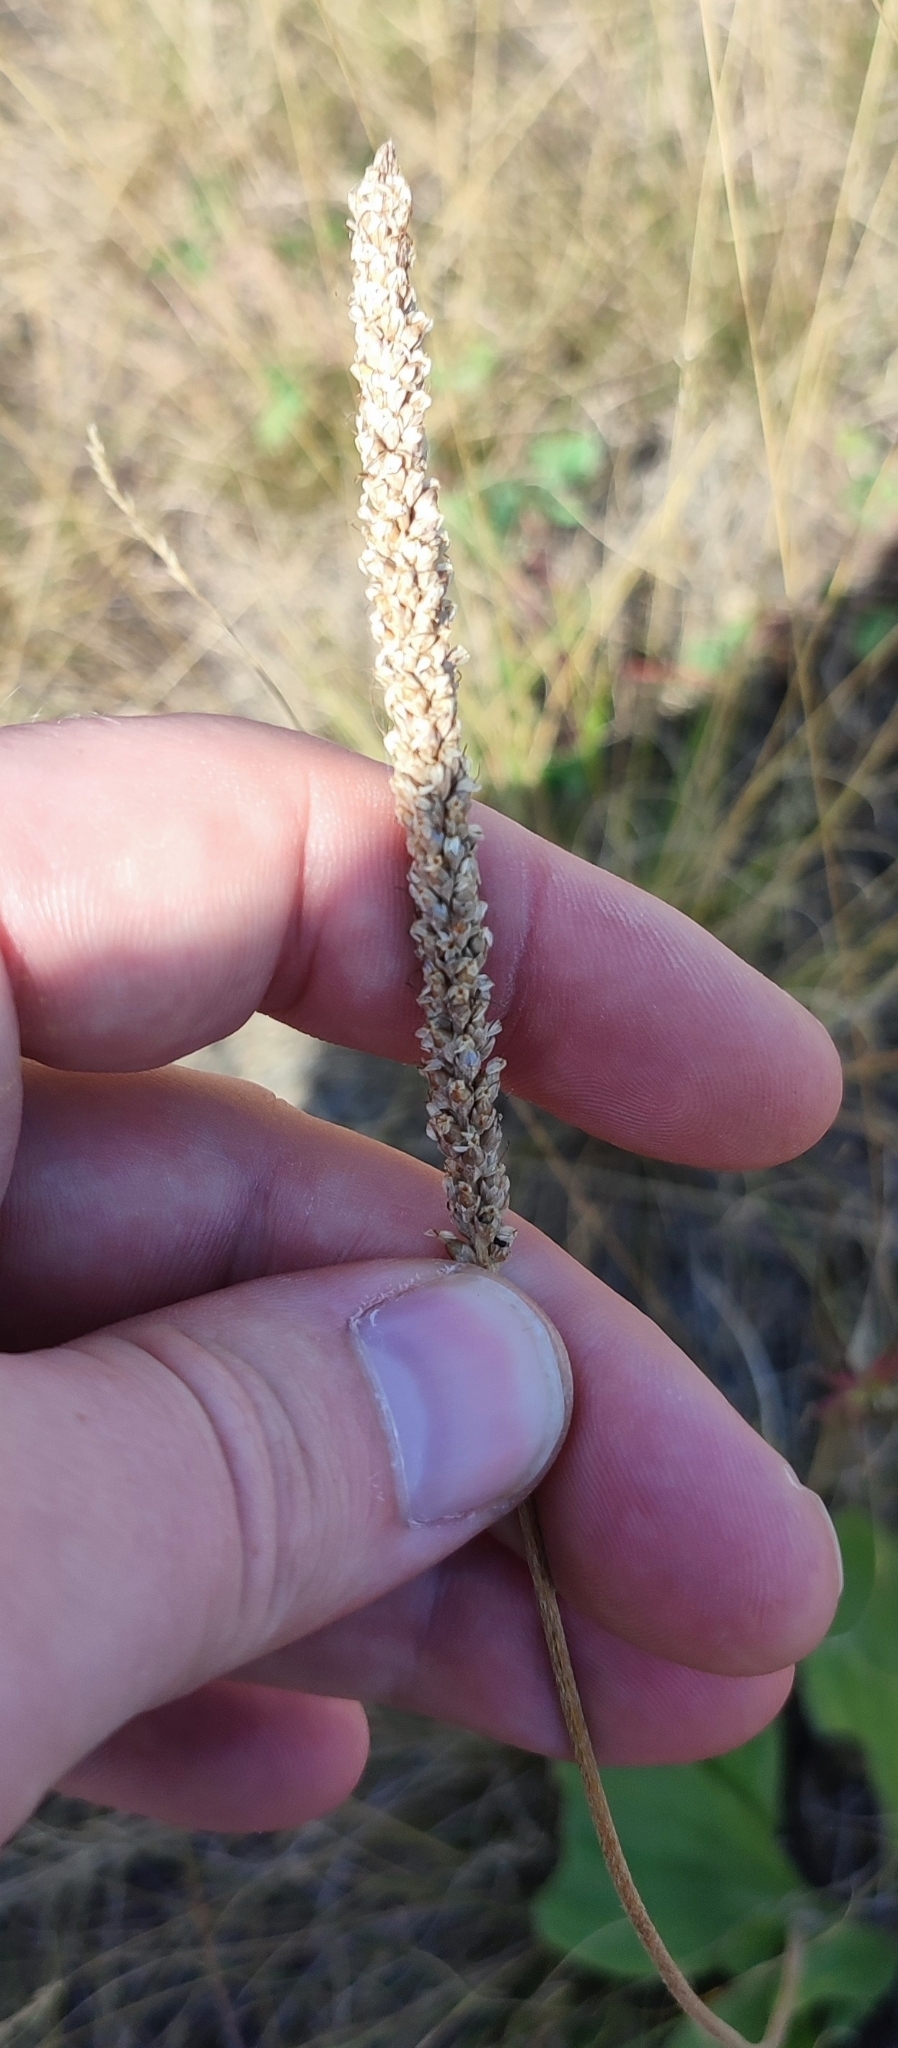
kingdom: Plantae
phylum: Tracheophyta
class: Magnoliopsida
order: Lamiales
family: Plantaginaceae
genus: Plantago
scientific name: Plantago urvillei
